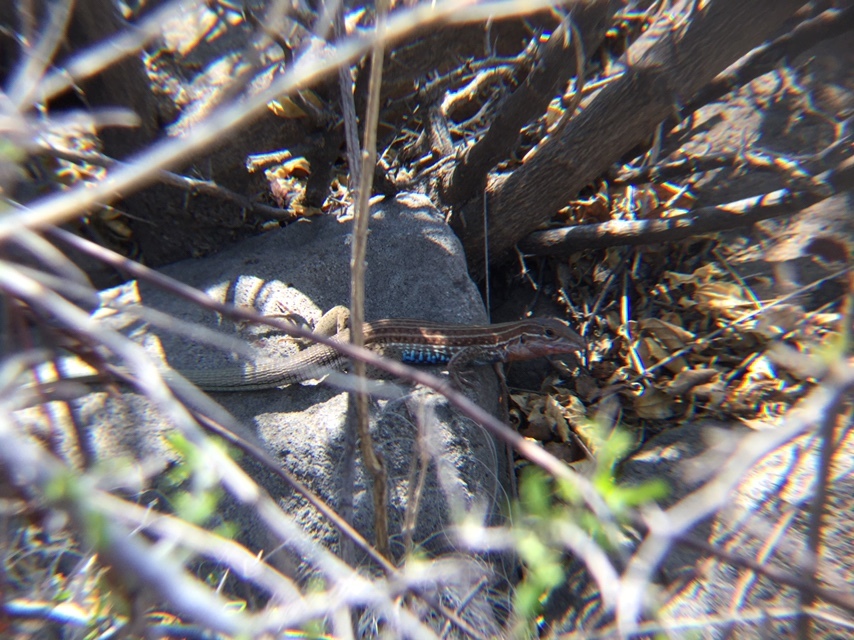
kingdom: Animalia
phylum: Chordata
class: Squamata
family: Teiidae
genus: Aspidoscelis
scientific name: Aspidoscelis gularis
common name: Eastern spotted whiptail
